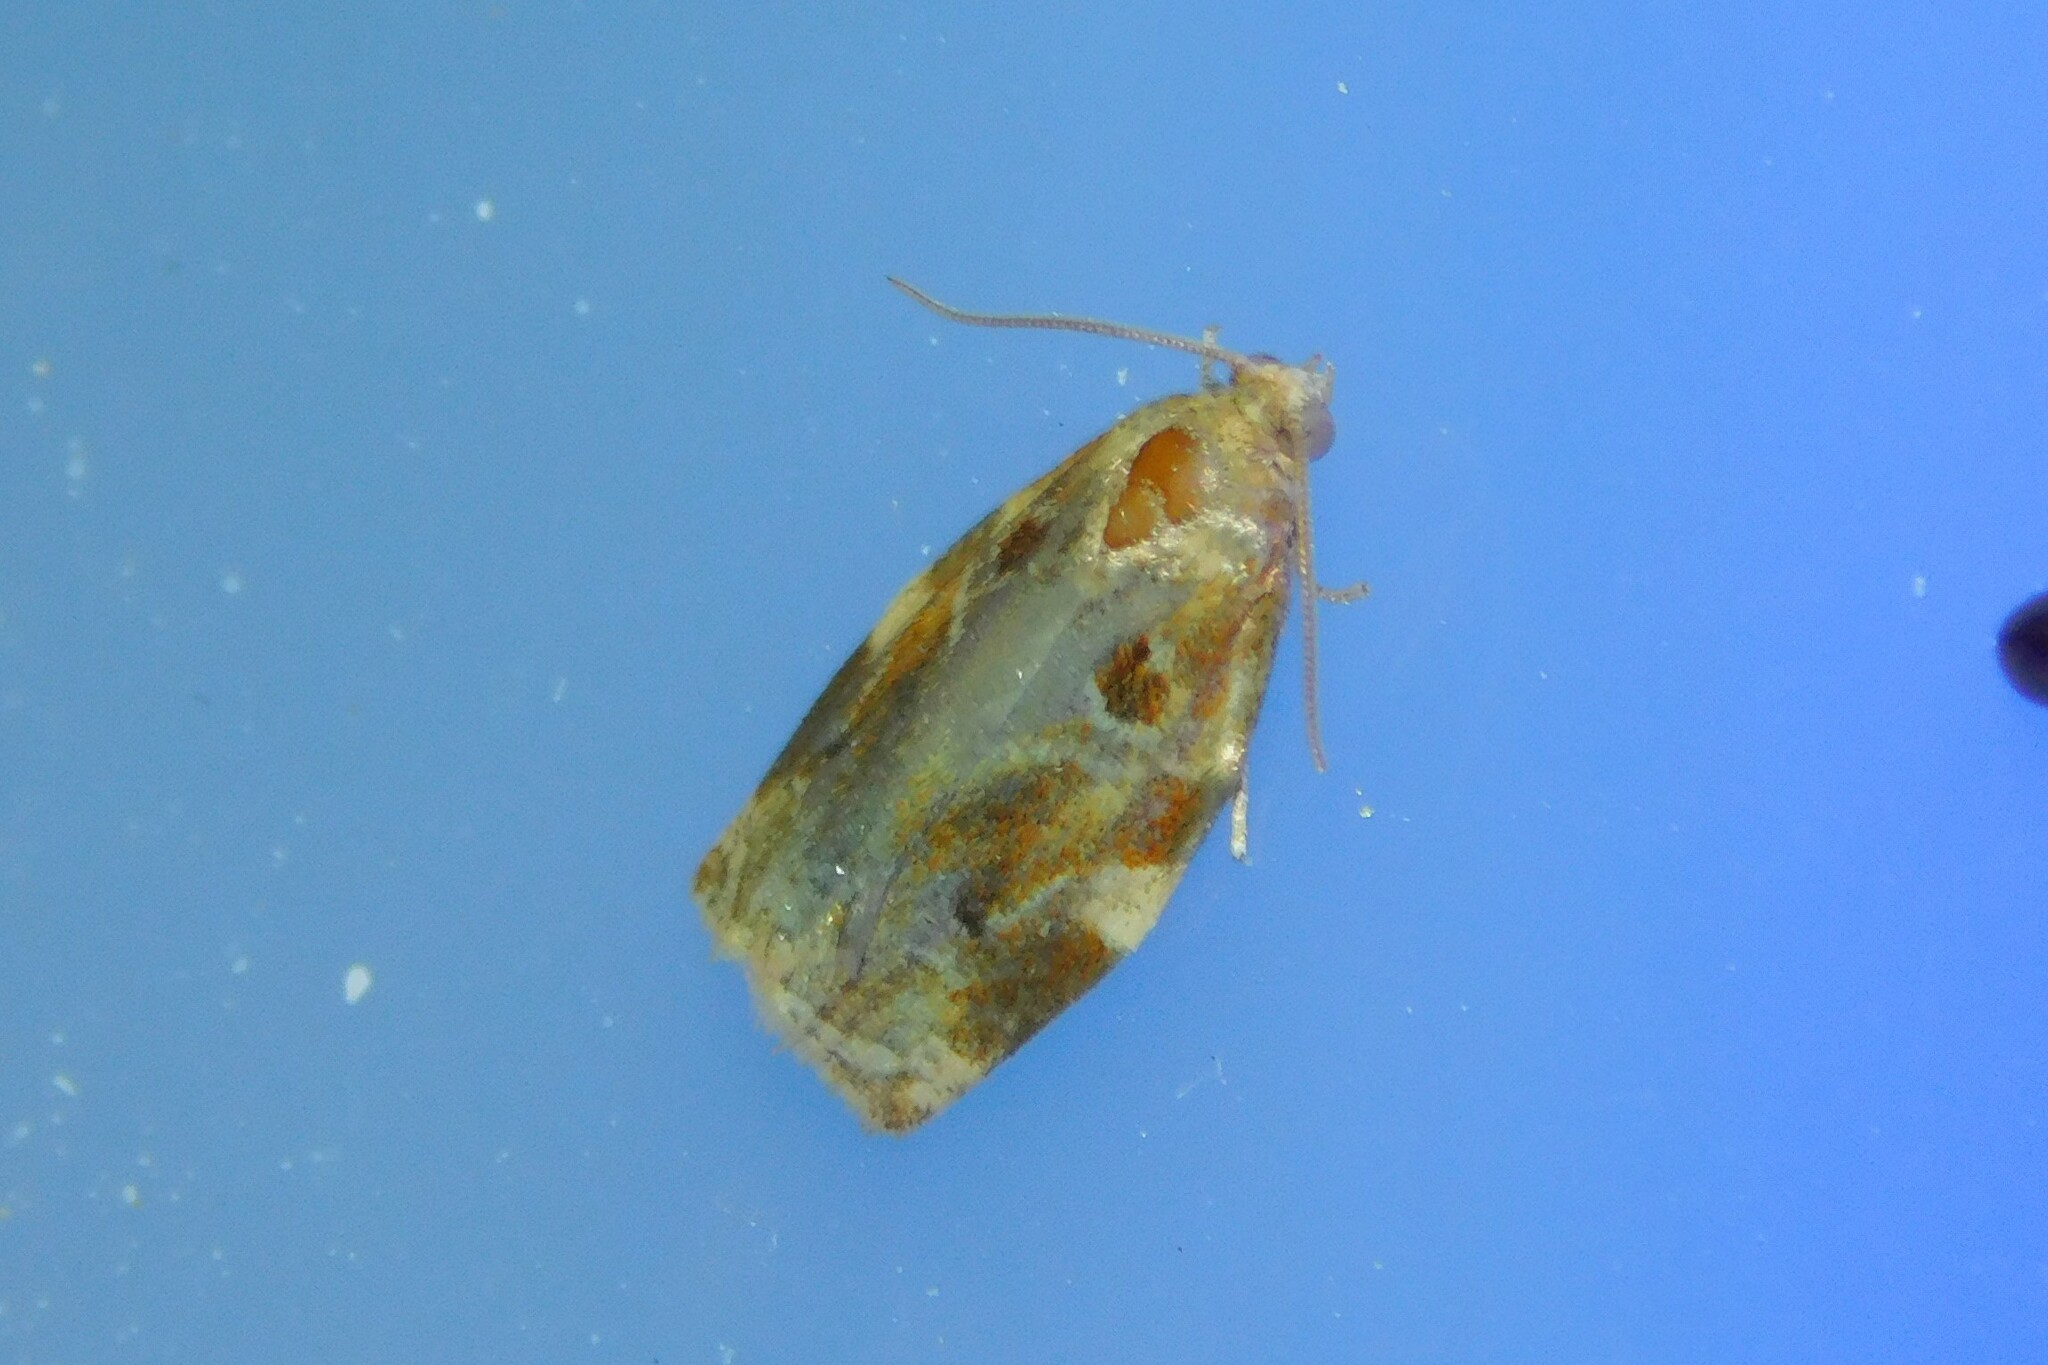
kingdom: Animalia
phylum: Arthropoda
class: Insecta
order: Lepidoptera
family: Tortricidae
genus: Archips
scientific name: Archips xylosteana
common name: Variegated golden tortrix
